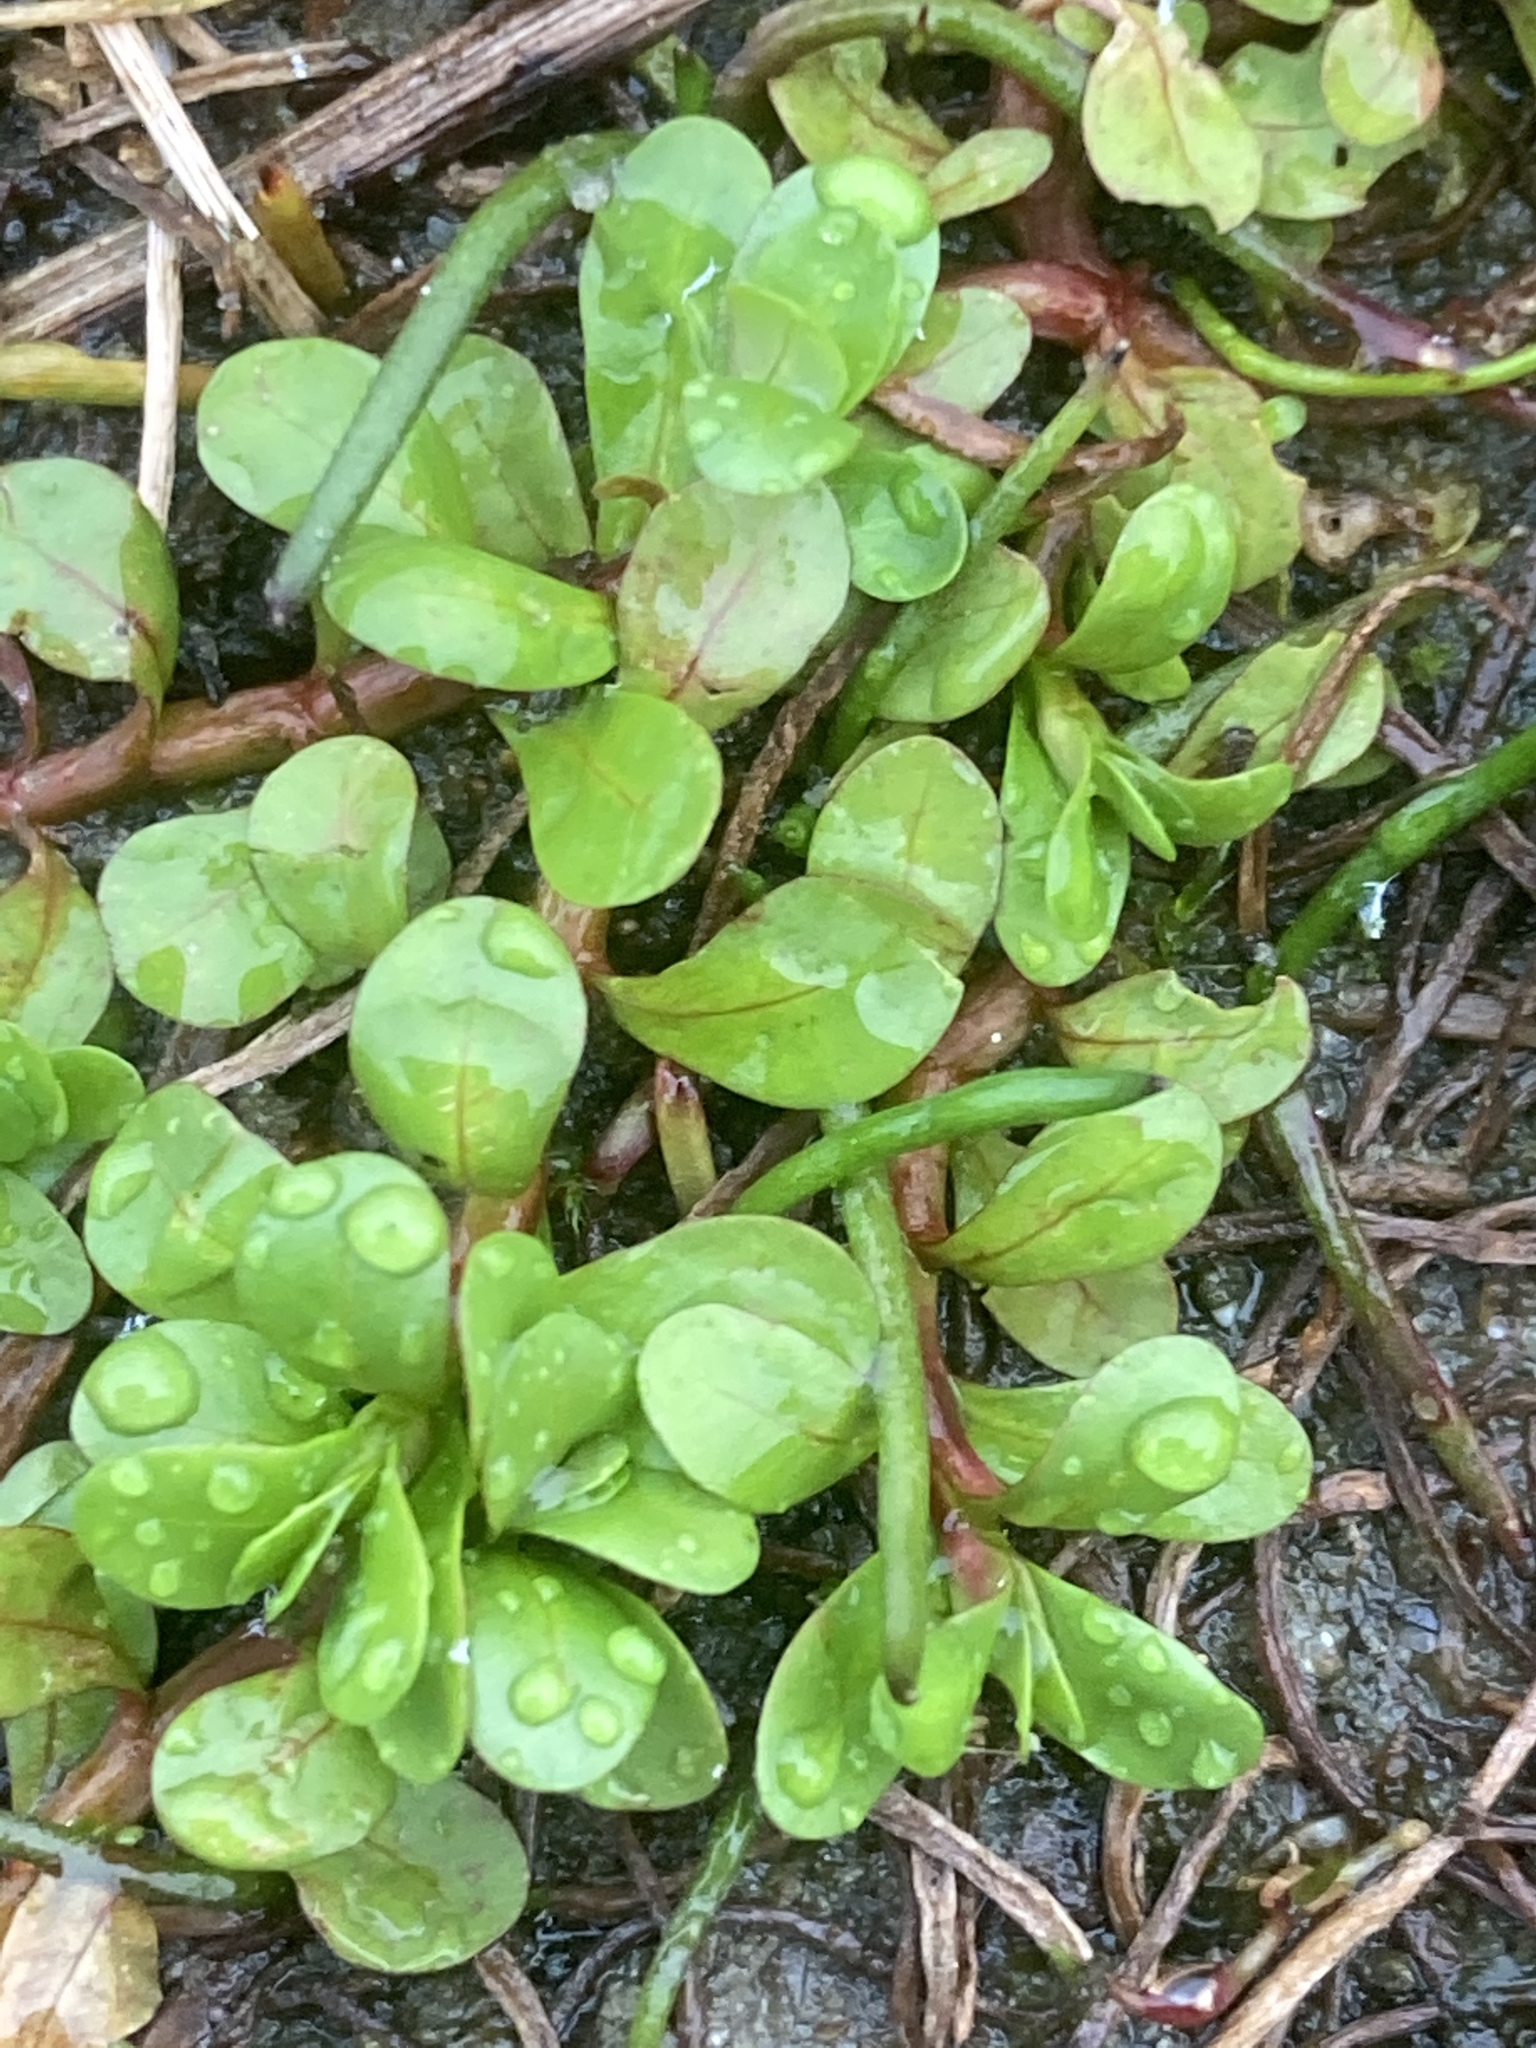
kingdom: Plantae
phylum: Tracheophyta
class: Magnoliopsida
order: Myrtales
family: Lythraceae
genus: Lythrum
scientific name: Lythrum portula
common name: Water purslane
